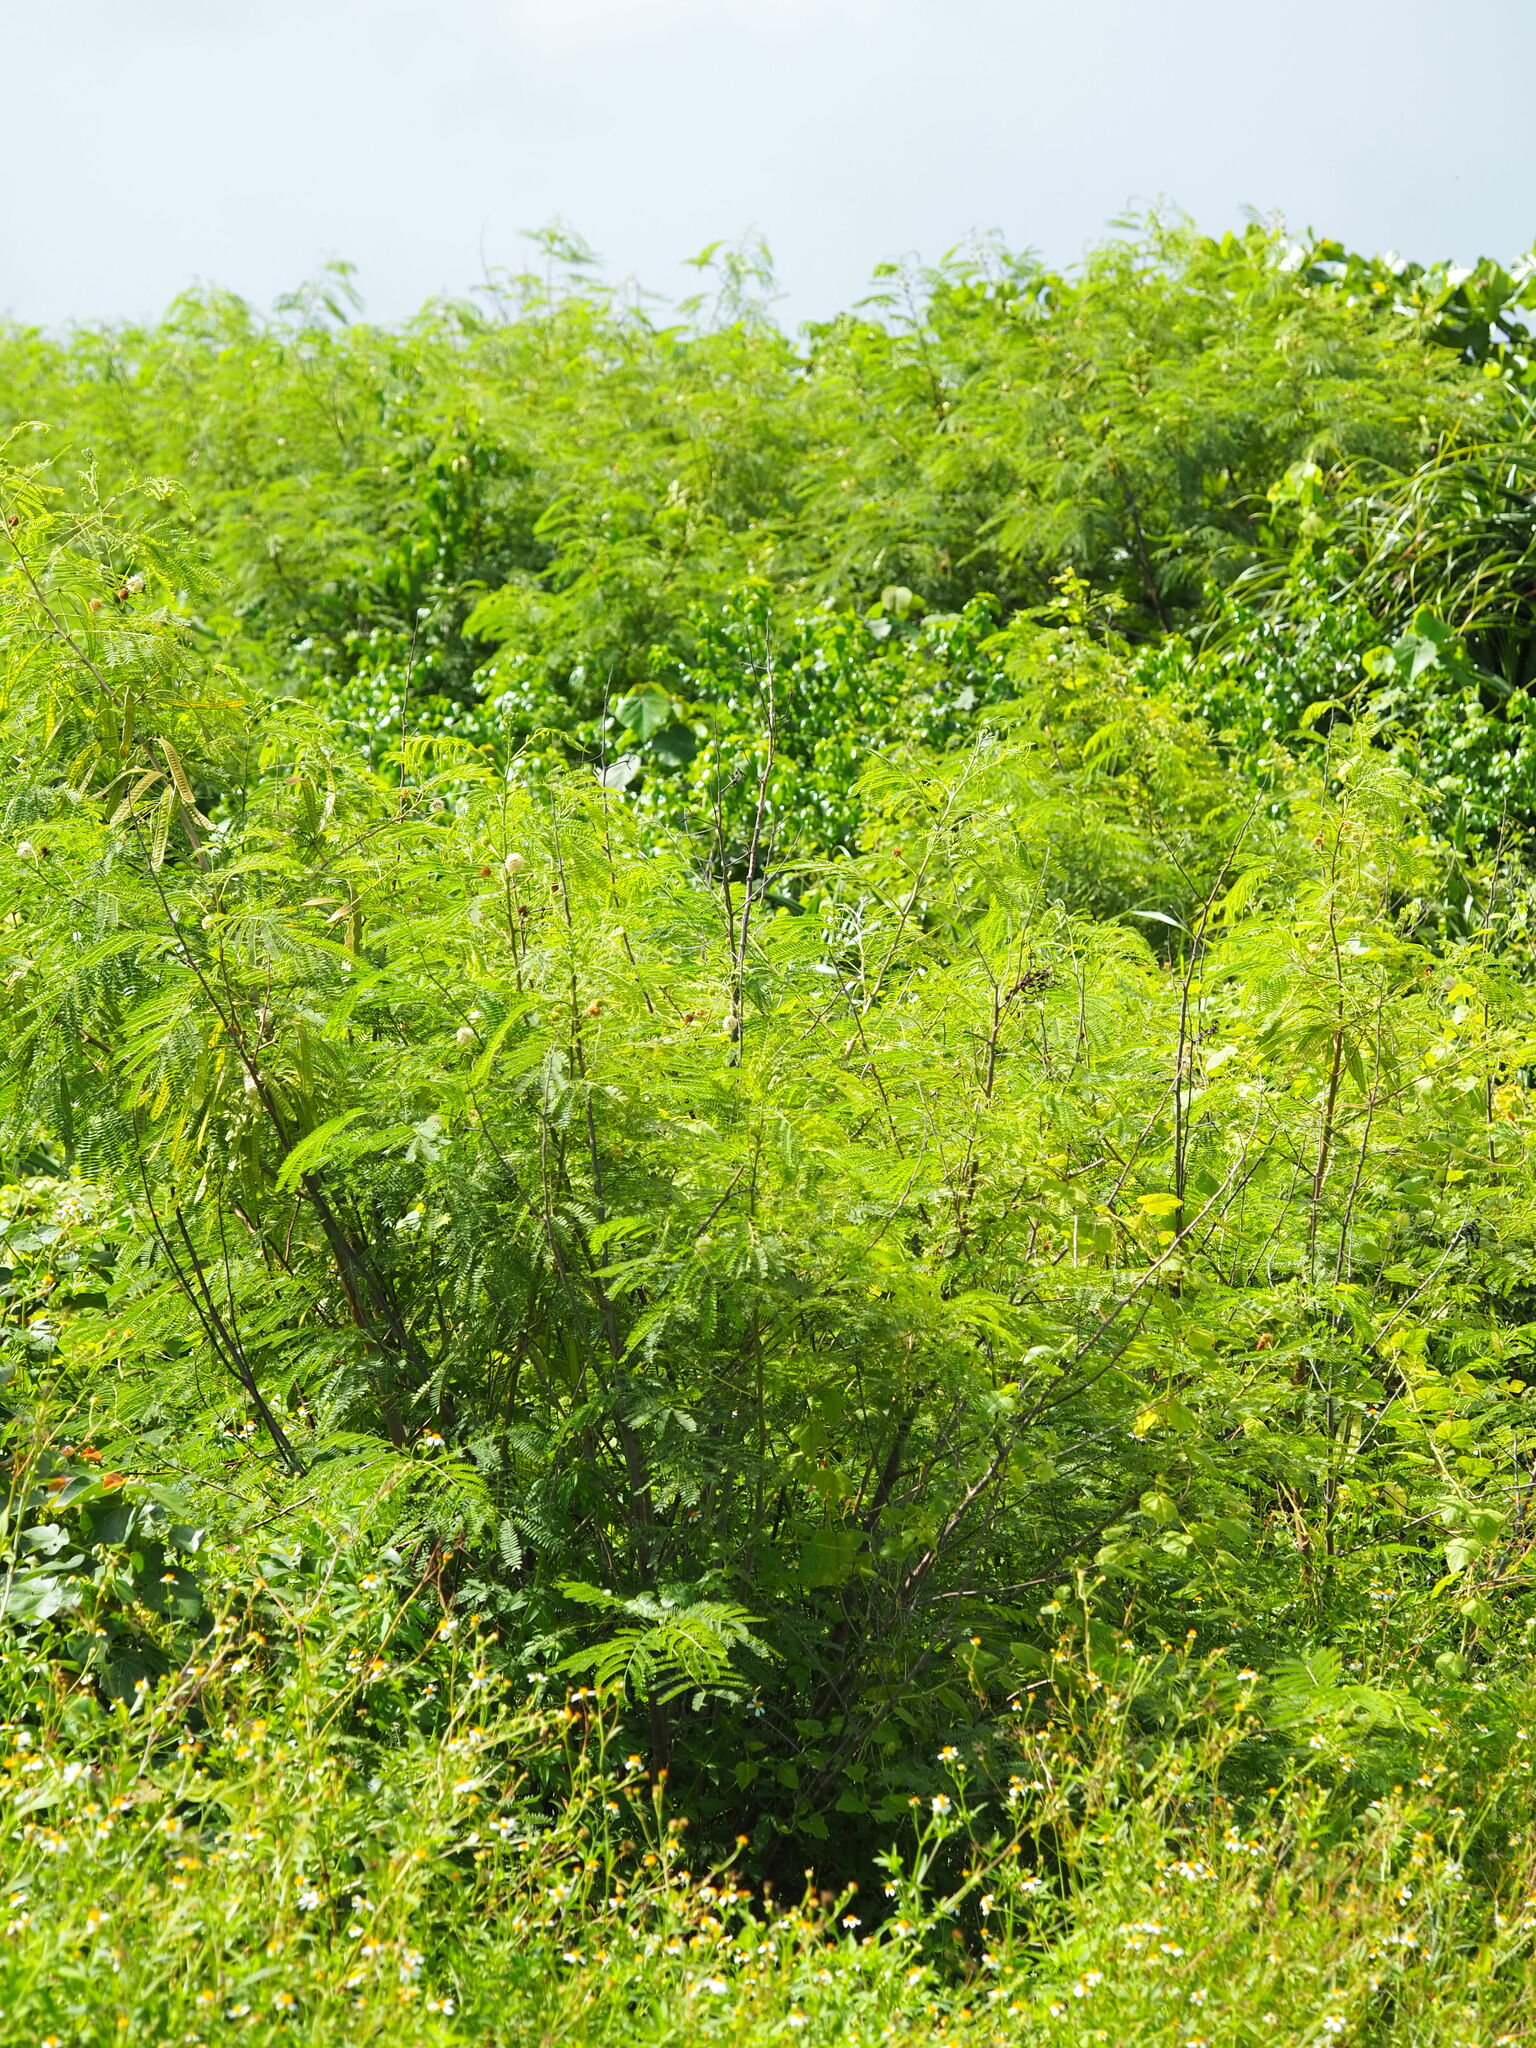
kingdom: Plantae
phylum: Tracheophyta
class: Magnoliopsida
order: Fabales
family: Fabaceae
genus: Leucaena
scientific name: Leucaena leucocephala
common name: White leadtree
